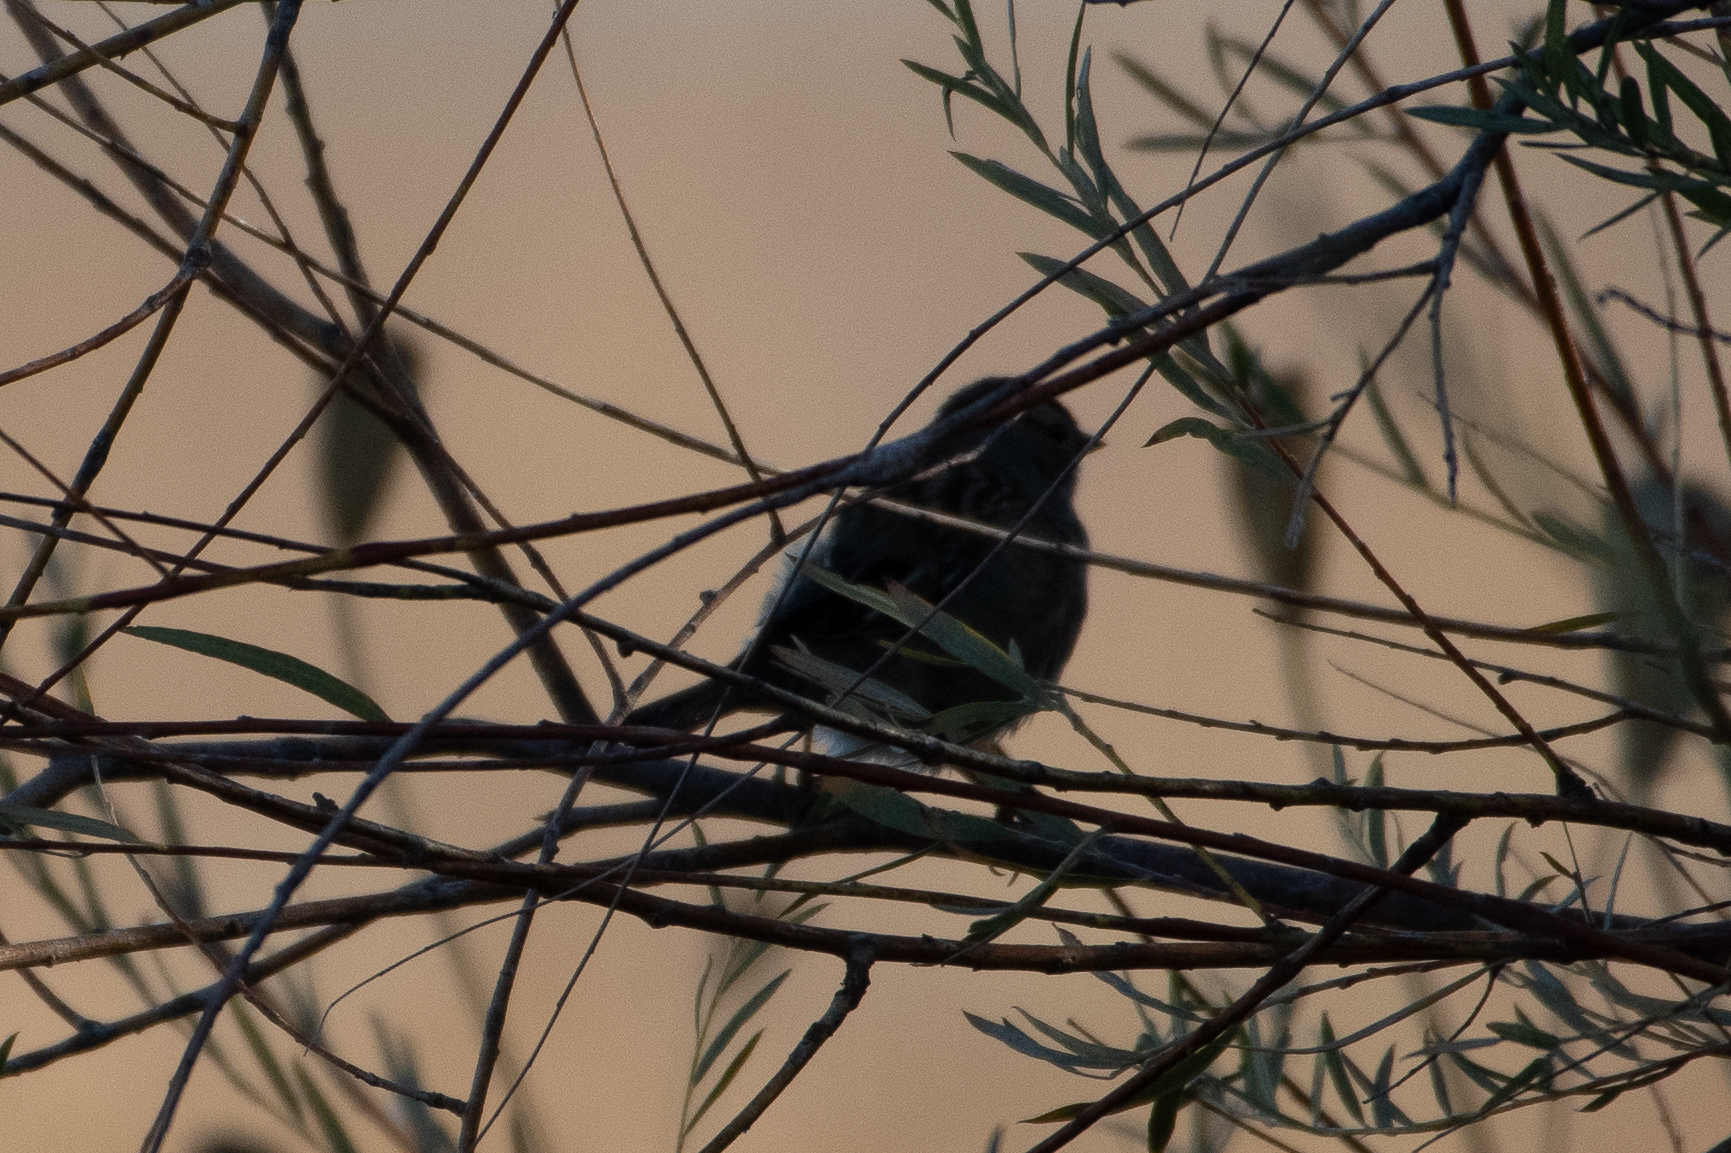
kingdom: Animalia
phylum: Chordata
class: Aves
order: Passeriformes
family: Passerellidae
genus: Zonotrichia
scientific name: Zonotrichia leucophrys
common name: White-crowned sparrow
